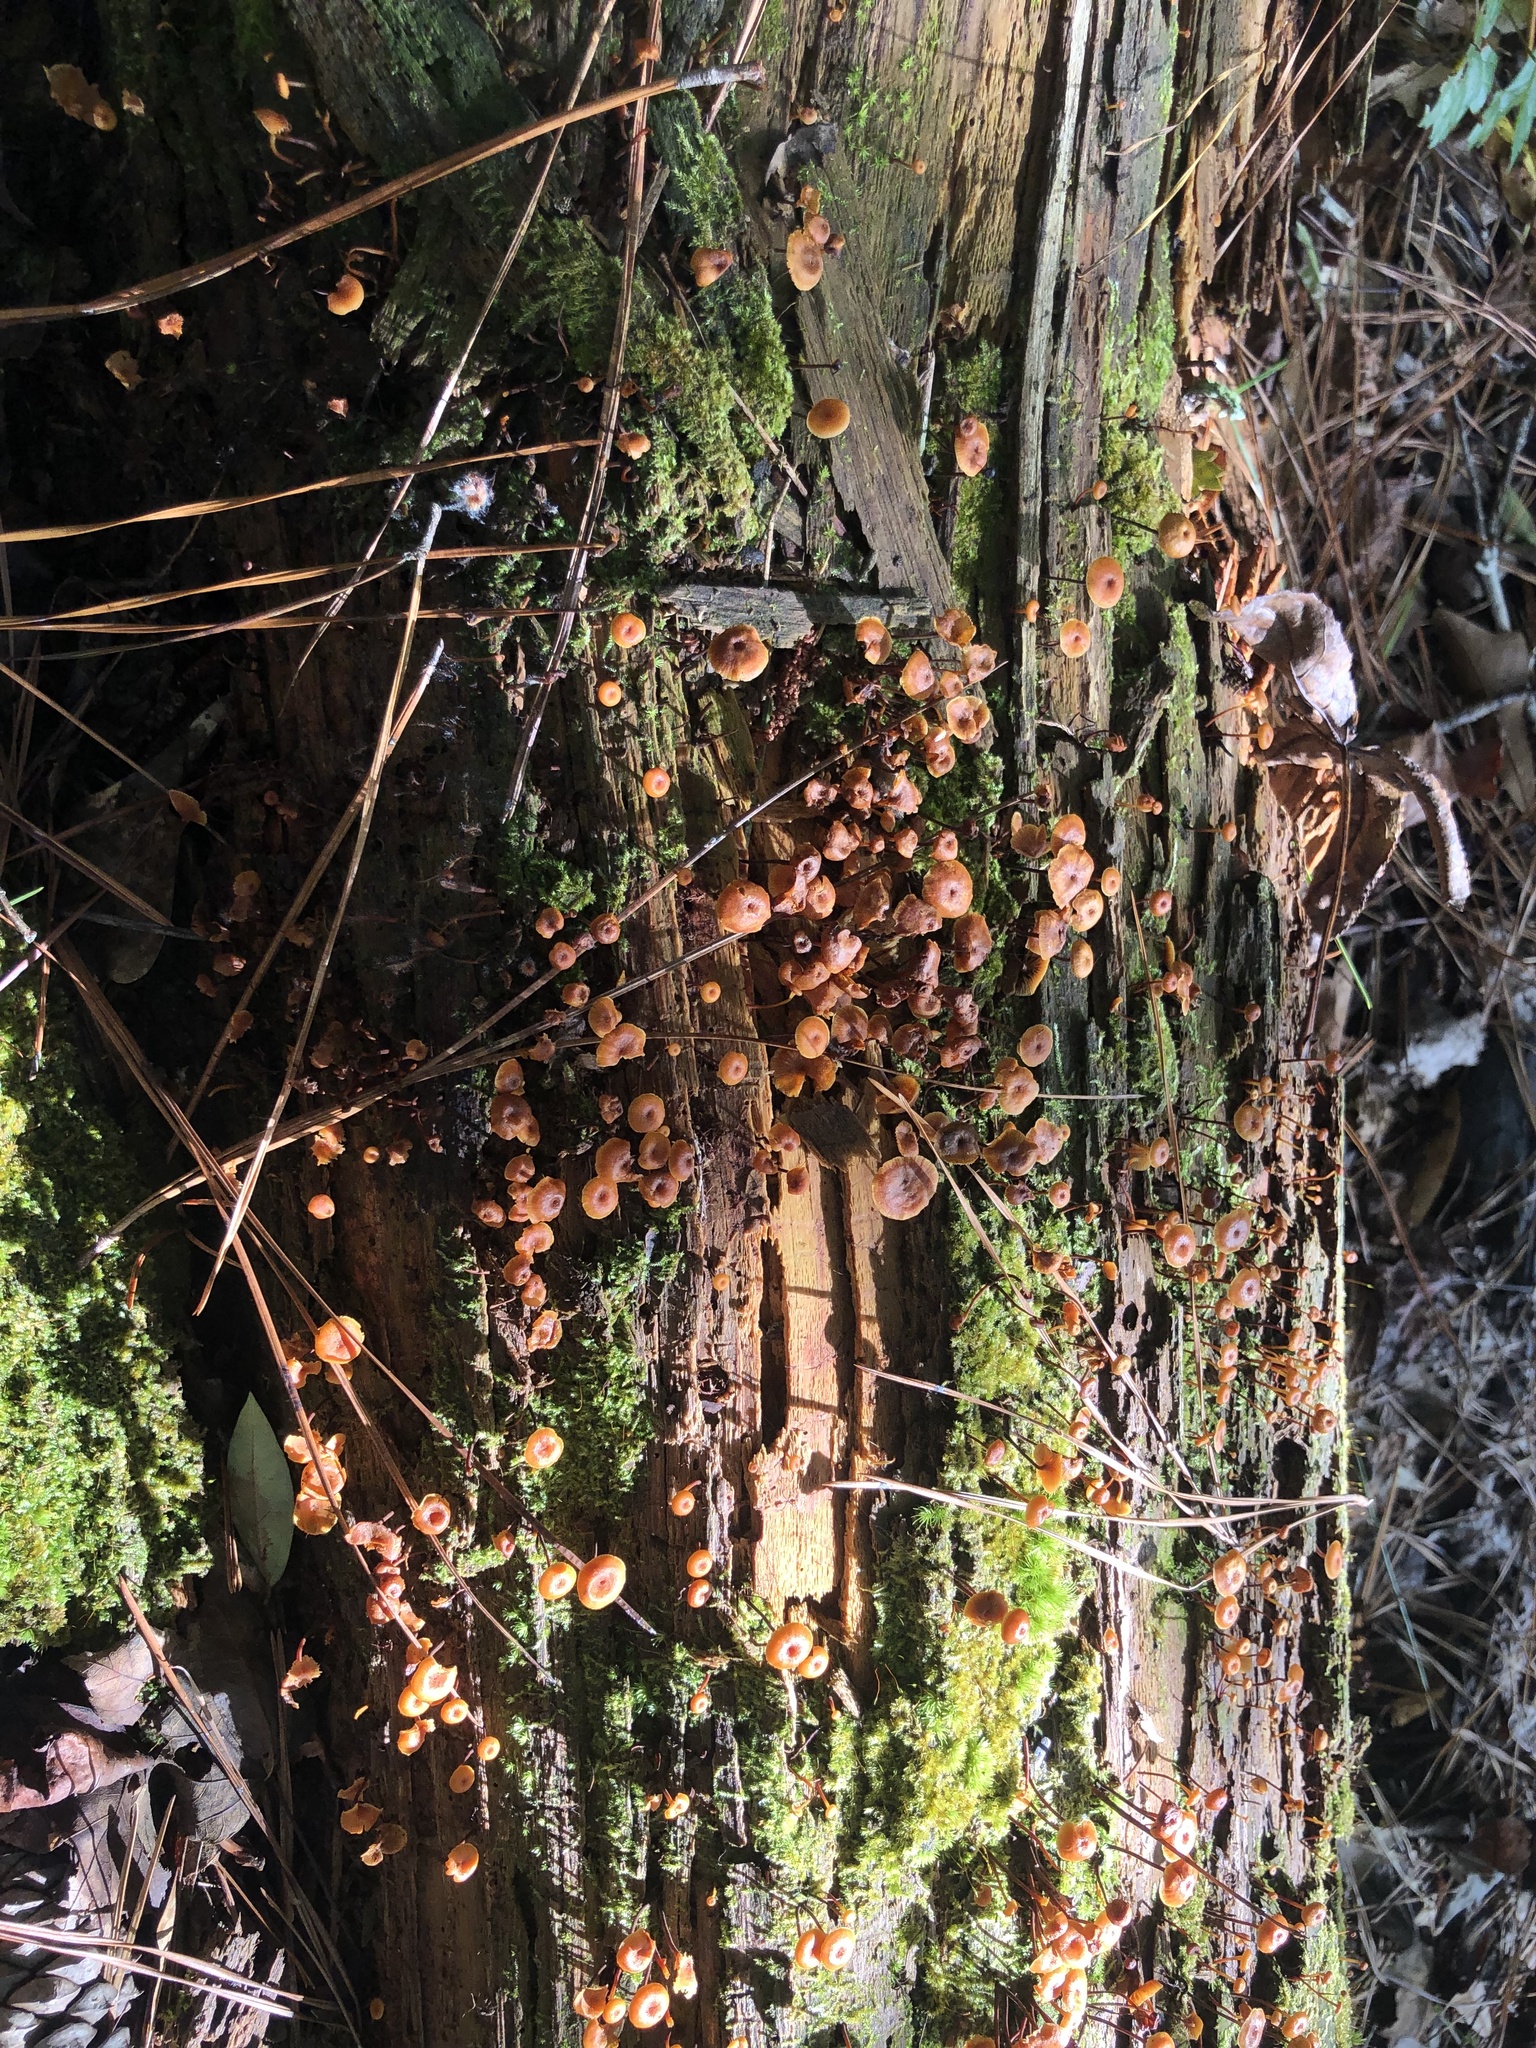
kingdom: Fungi
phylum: Basidiomycota
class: Agaricomycetes
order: Agaricales
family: Mycenaceae
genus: Xeromphalina
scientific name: Xeromphalina campanella
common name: Pinewood gingertail
